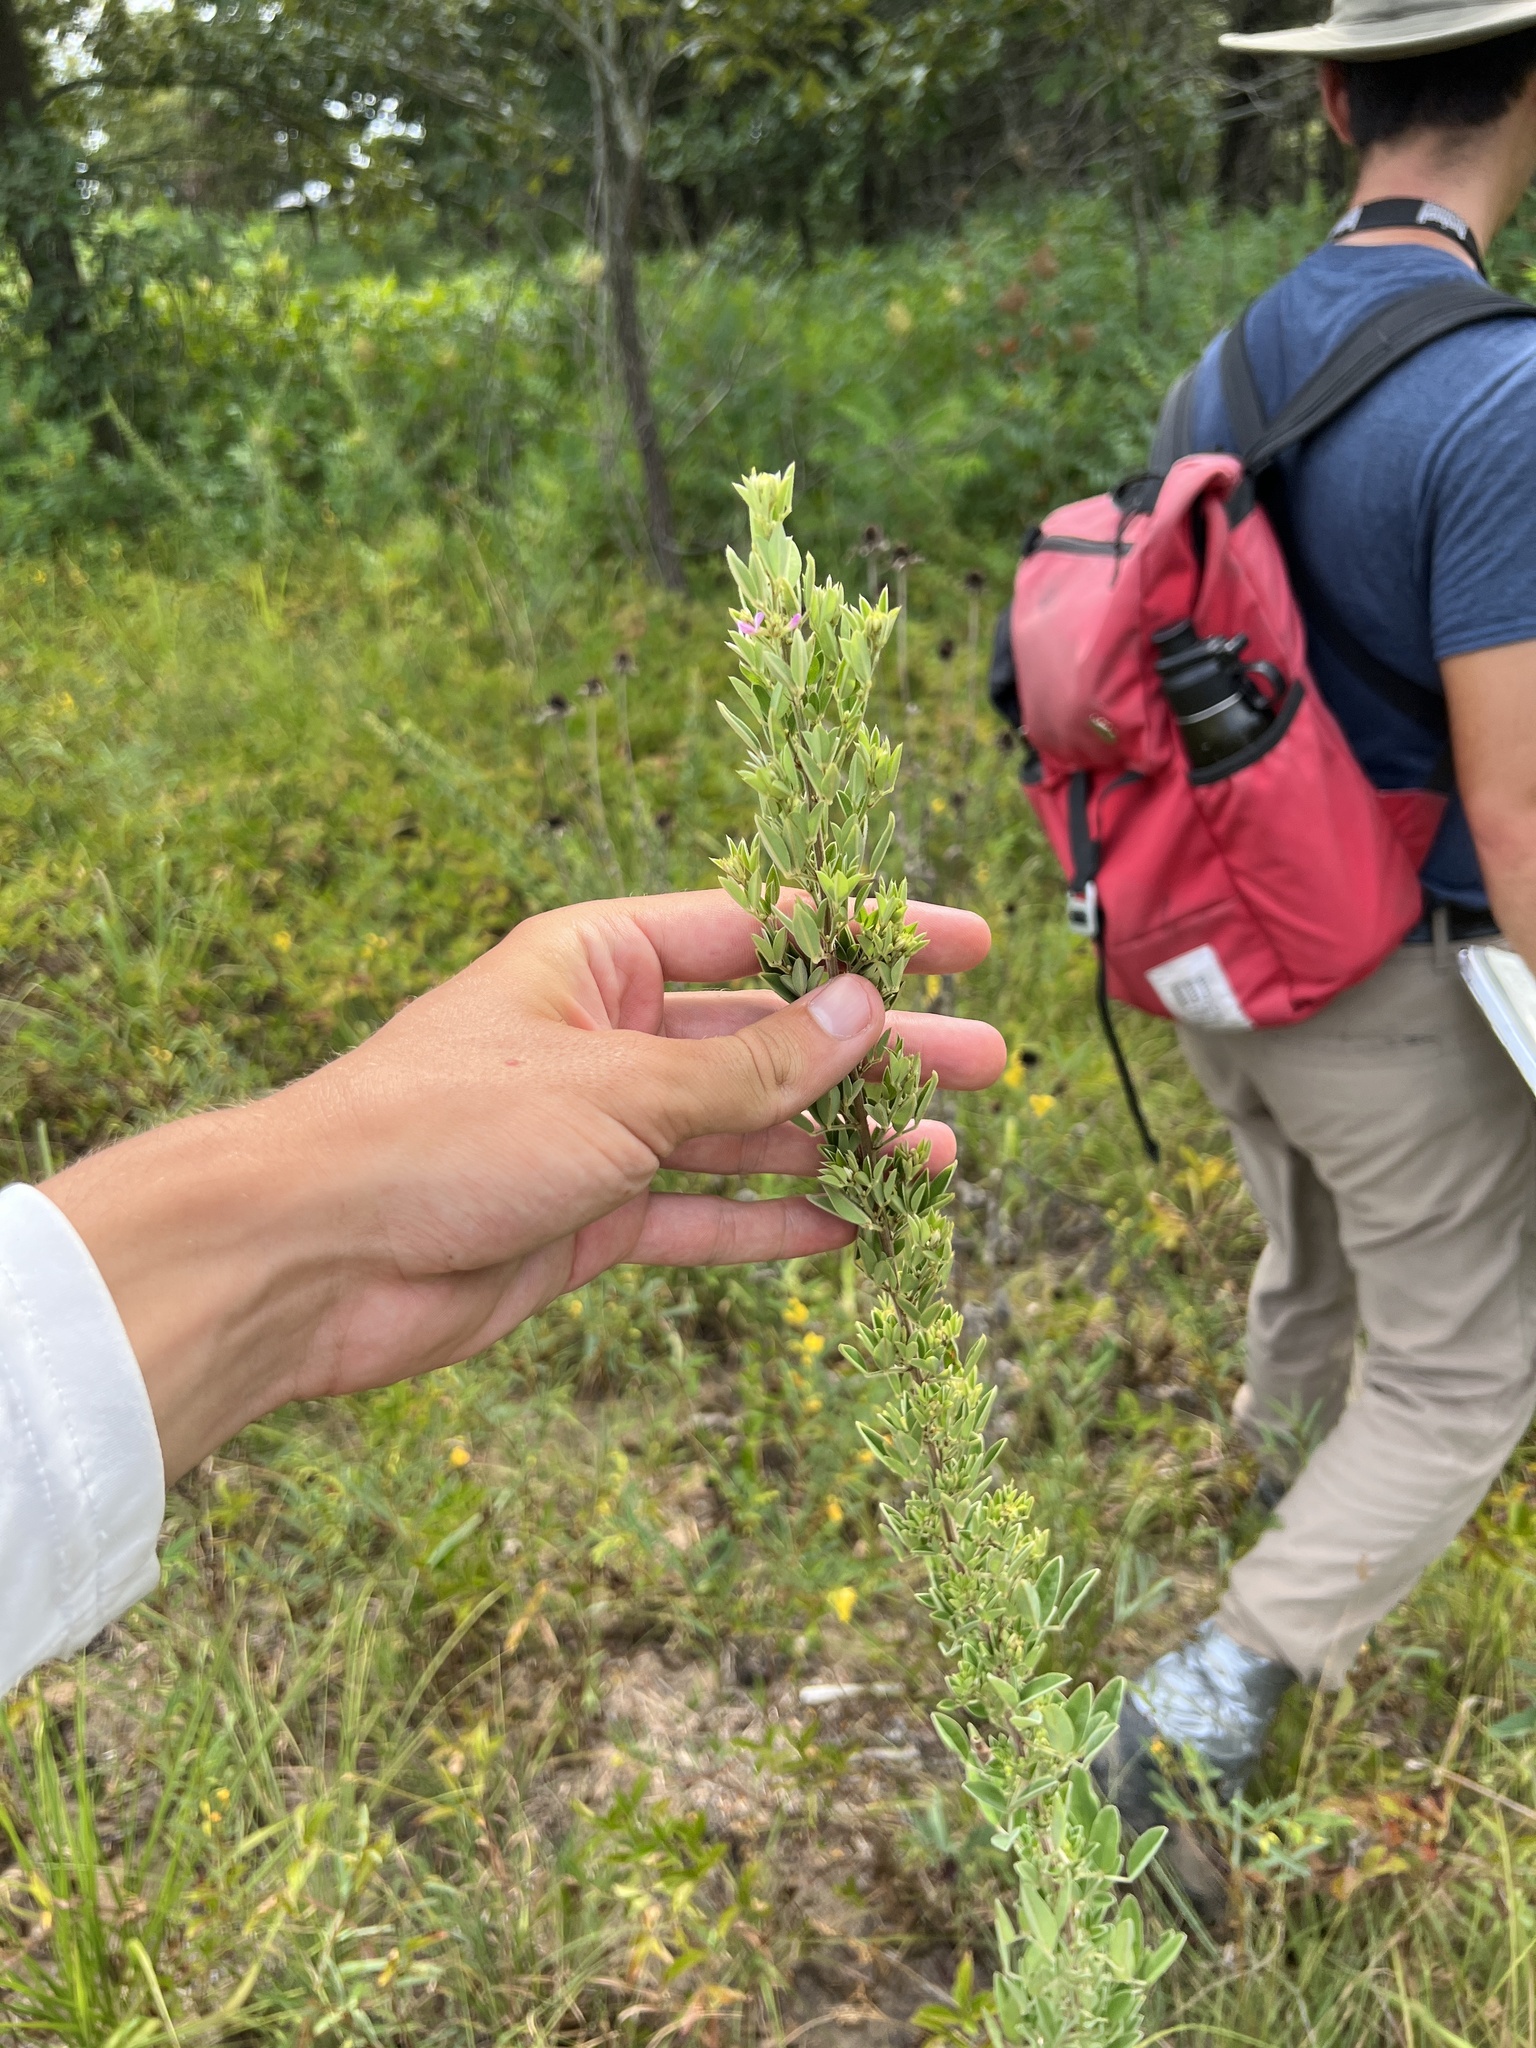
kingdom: Plantae
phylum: Tracheophyta
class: Magnoliopsida
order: Fabales
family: Fabaceae
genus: Lespedeza
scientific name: Lespedeza stuevei
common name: Tall bush-clover
